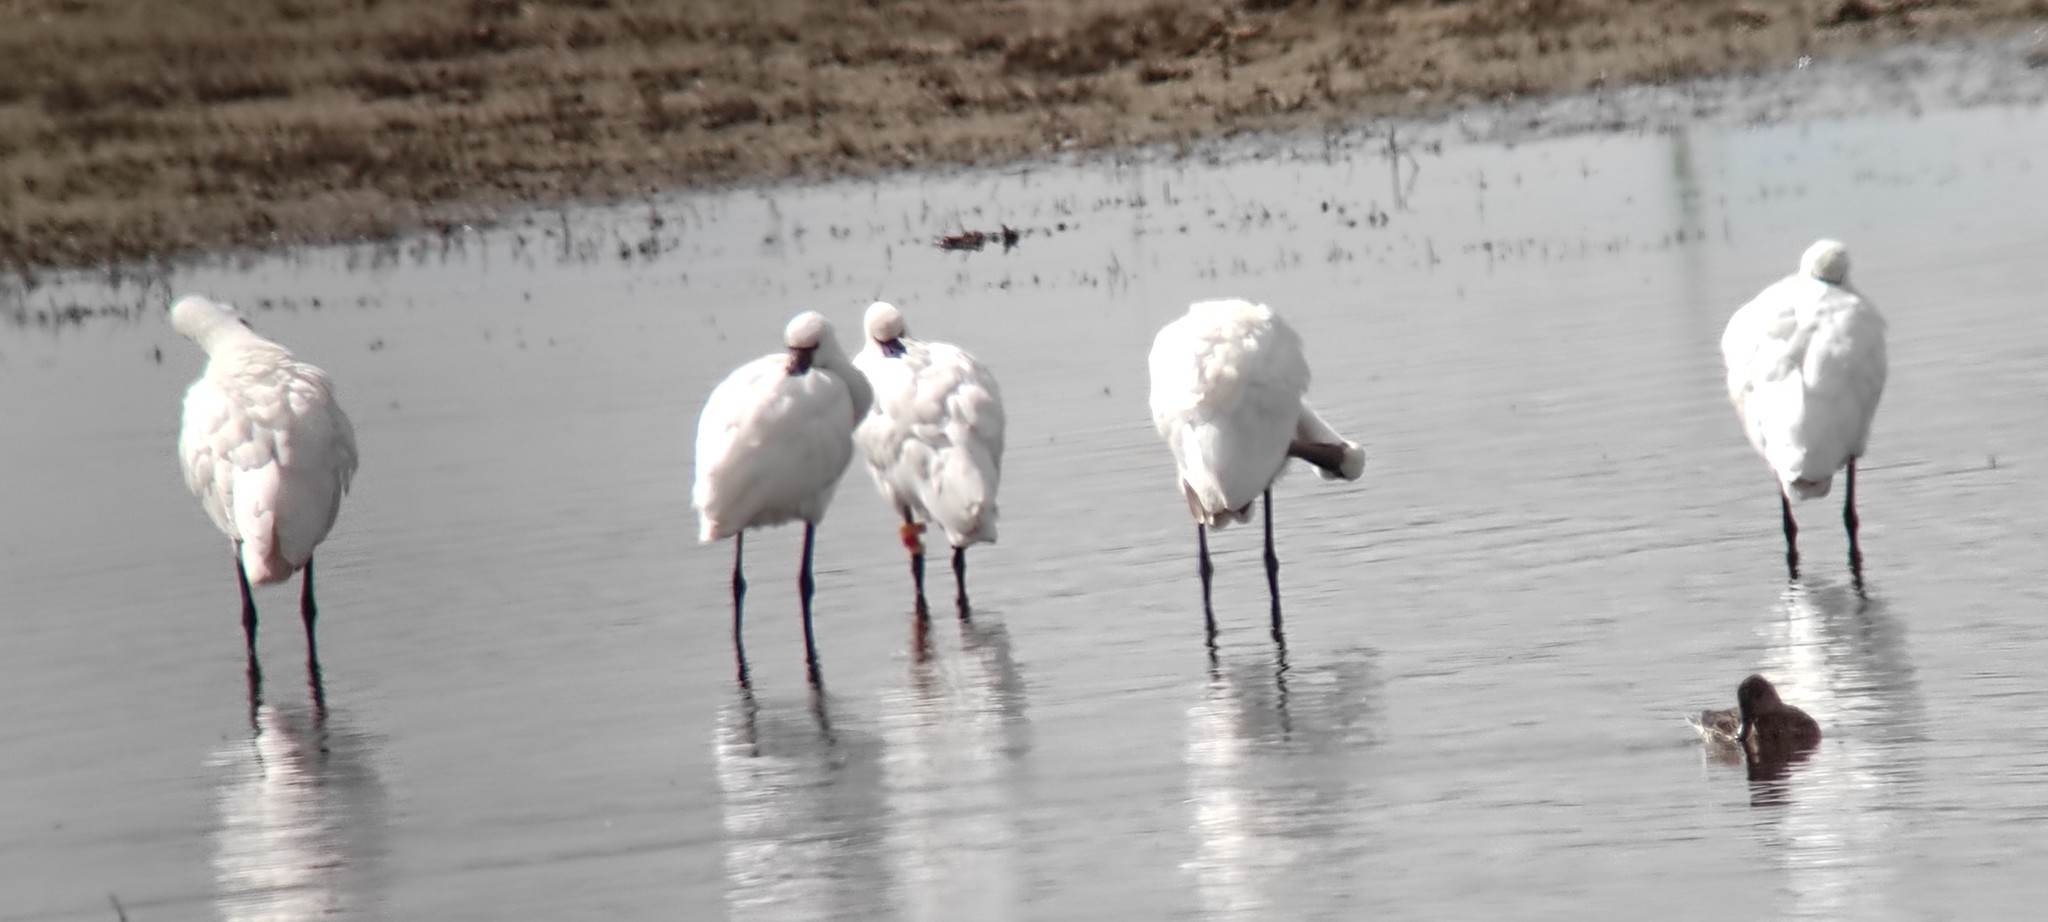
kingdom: Animalia
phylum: Chordata
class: Aves
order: Pelecaniformes
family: Threskiornithidae
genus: Platalea
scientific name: Platalea leucorodia
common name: Eurasian spoonbill
